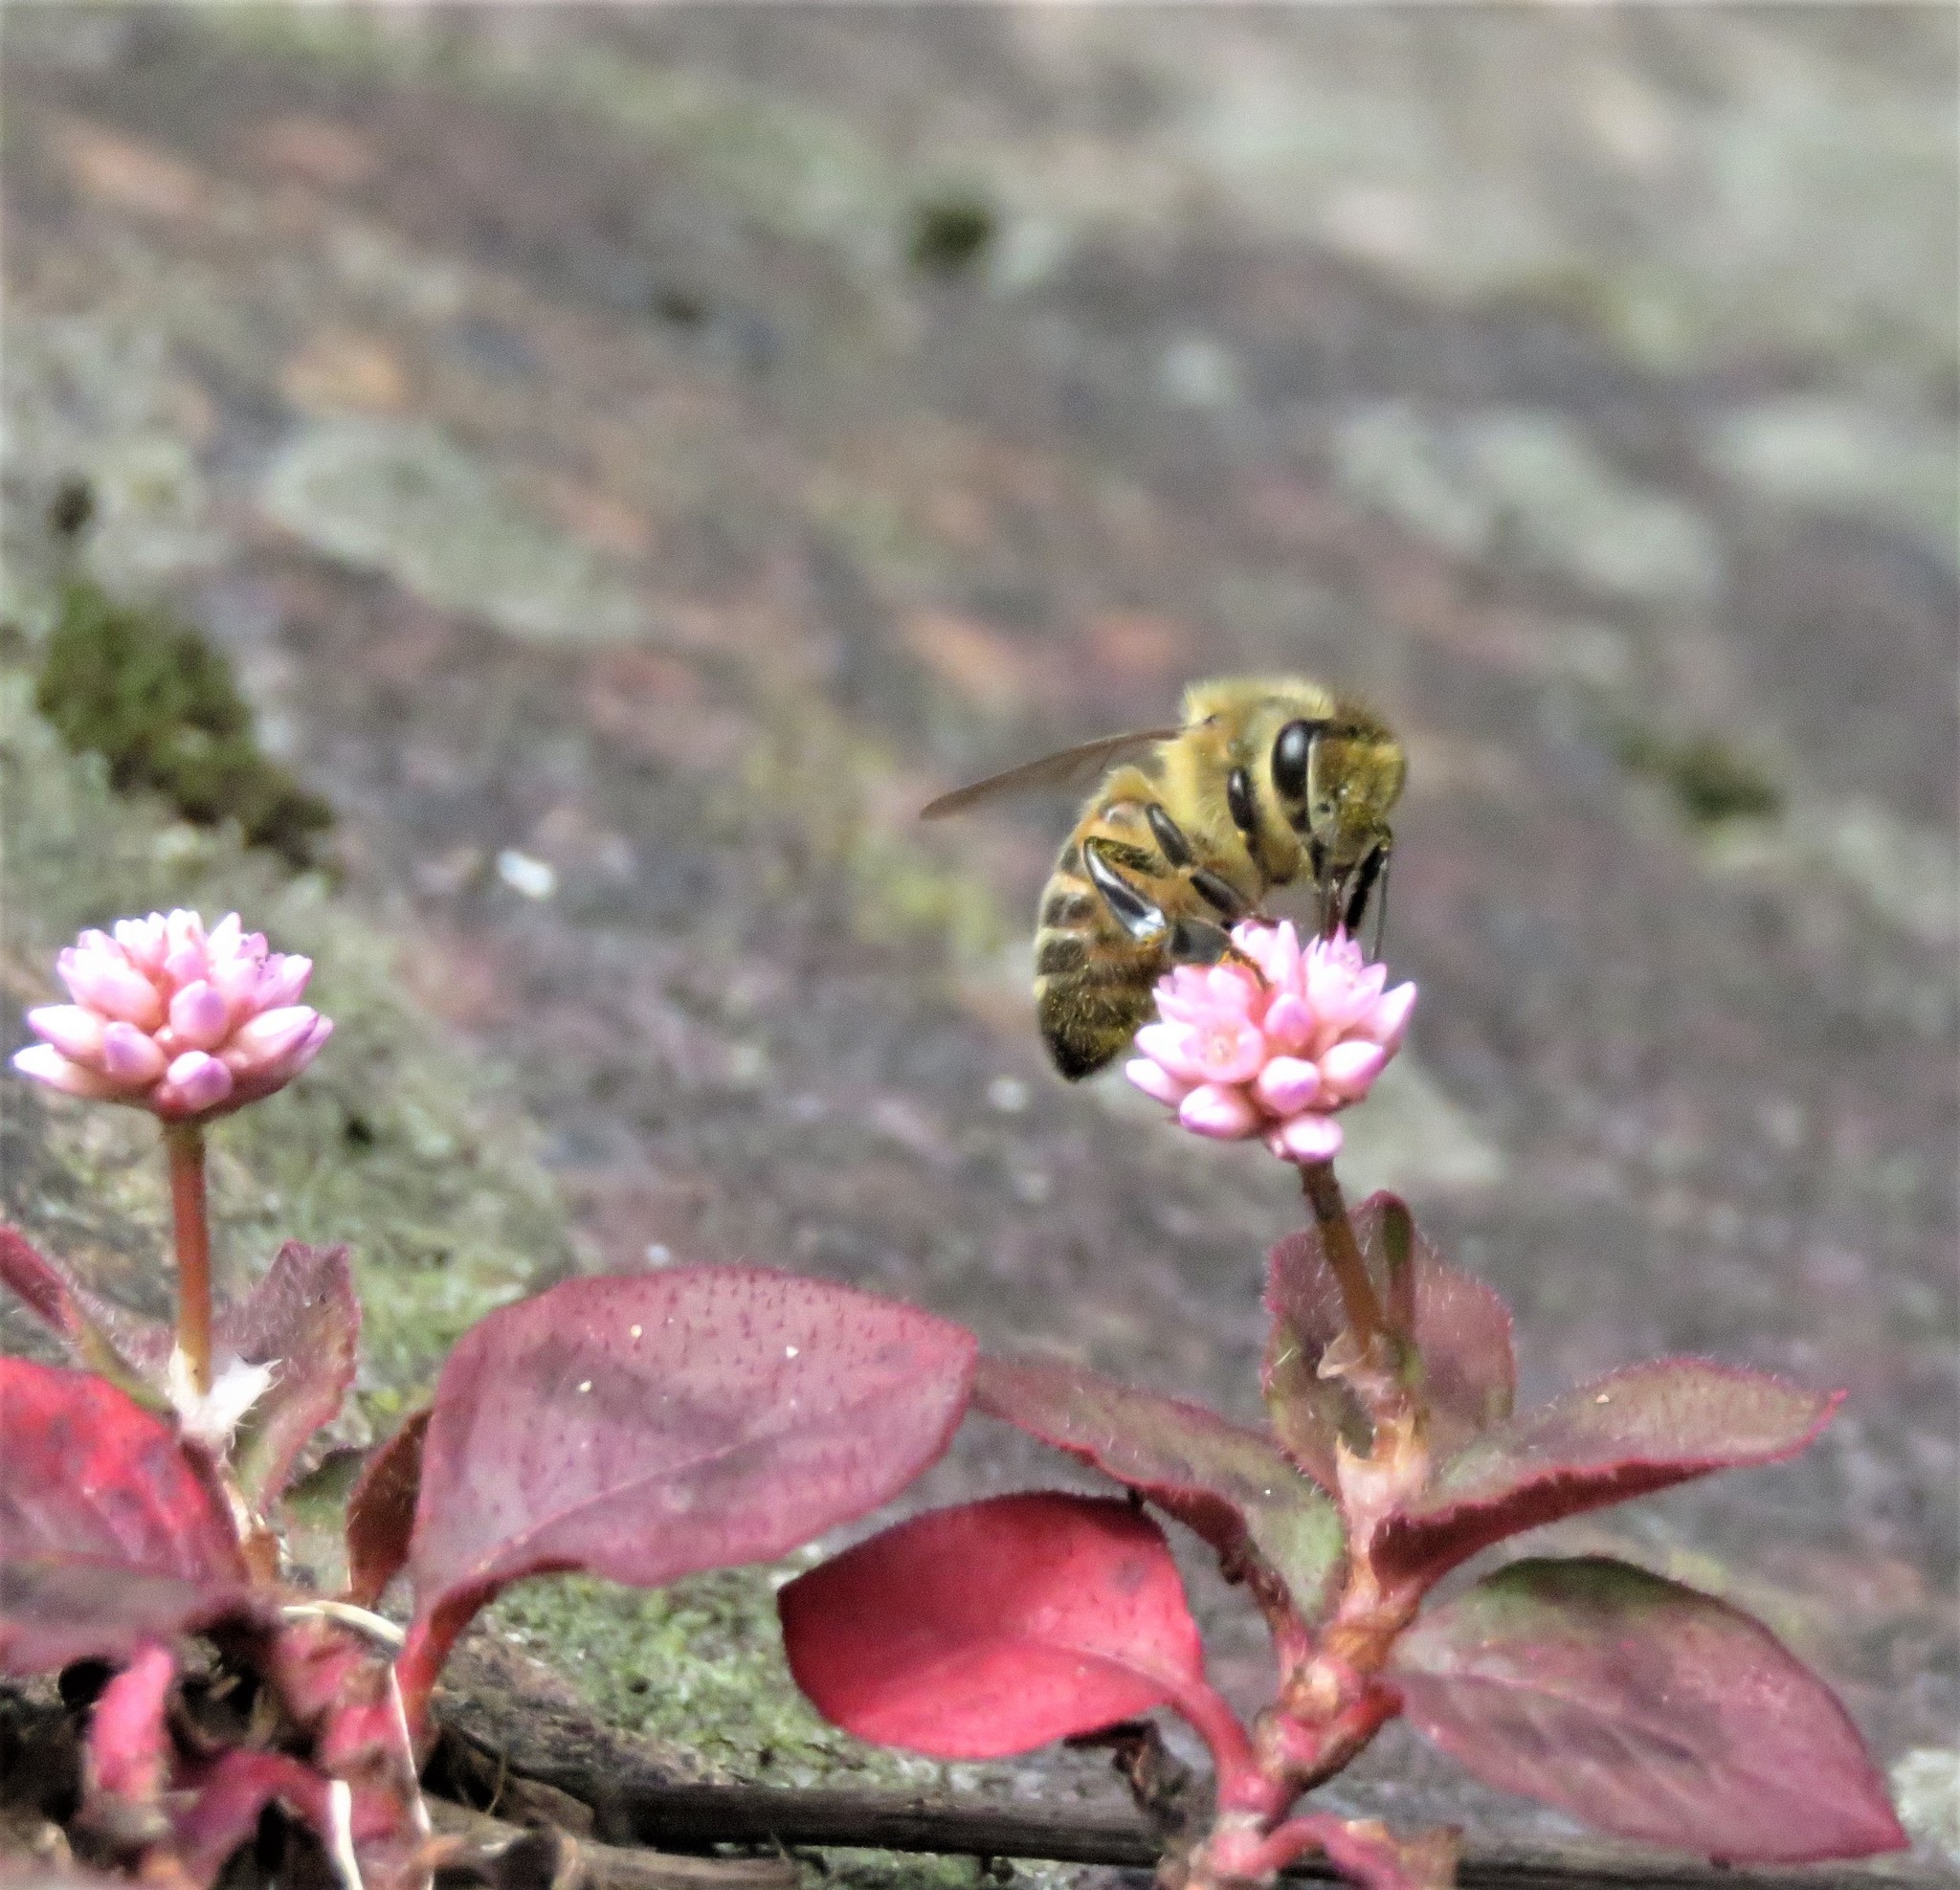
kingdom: Animalia
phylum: Arthropoda
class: Insecta
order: Hymenoptera
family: Apidae
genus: Apis
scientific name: Apis mellifera
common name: Honey bee
